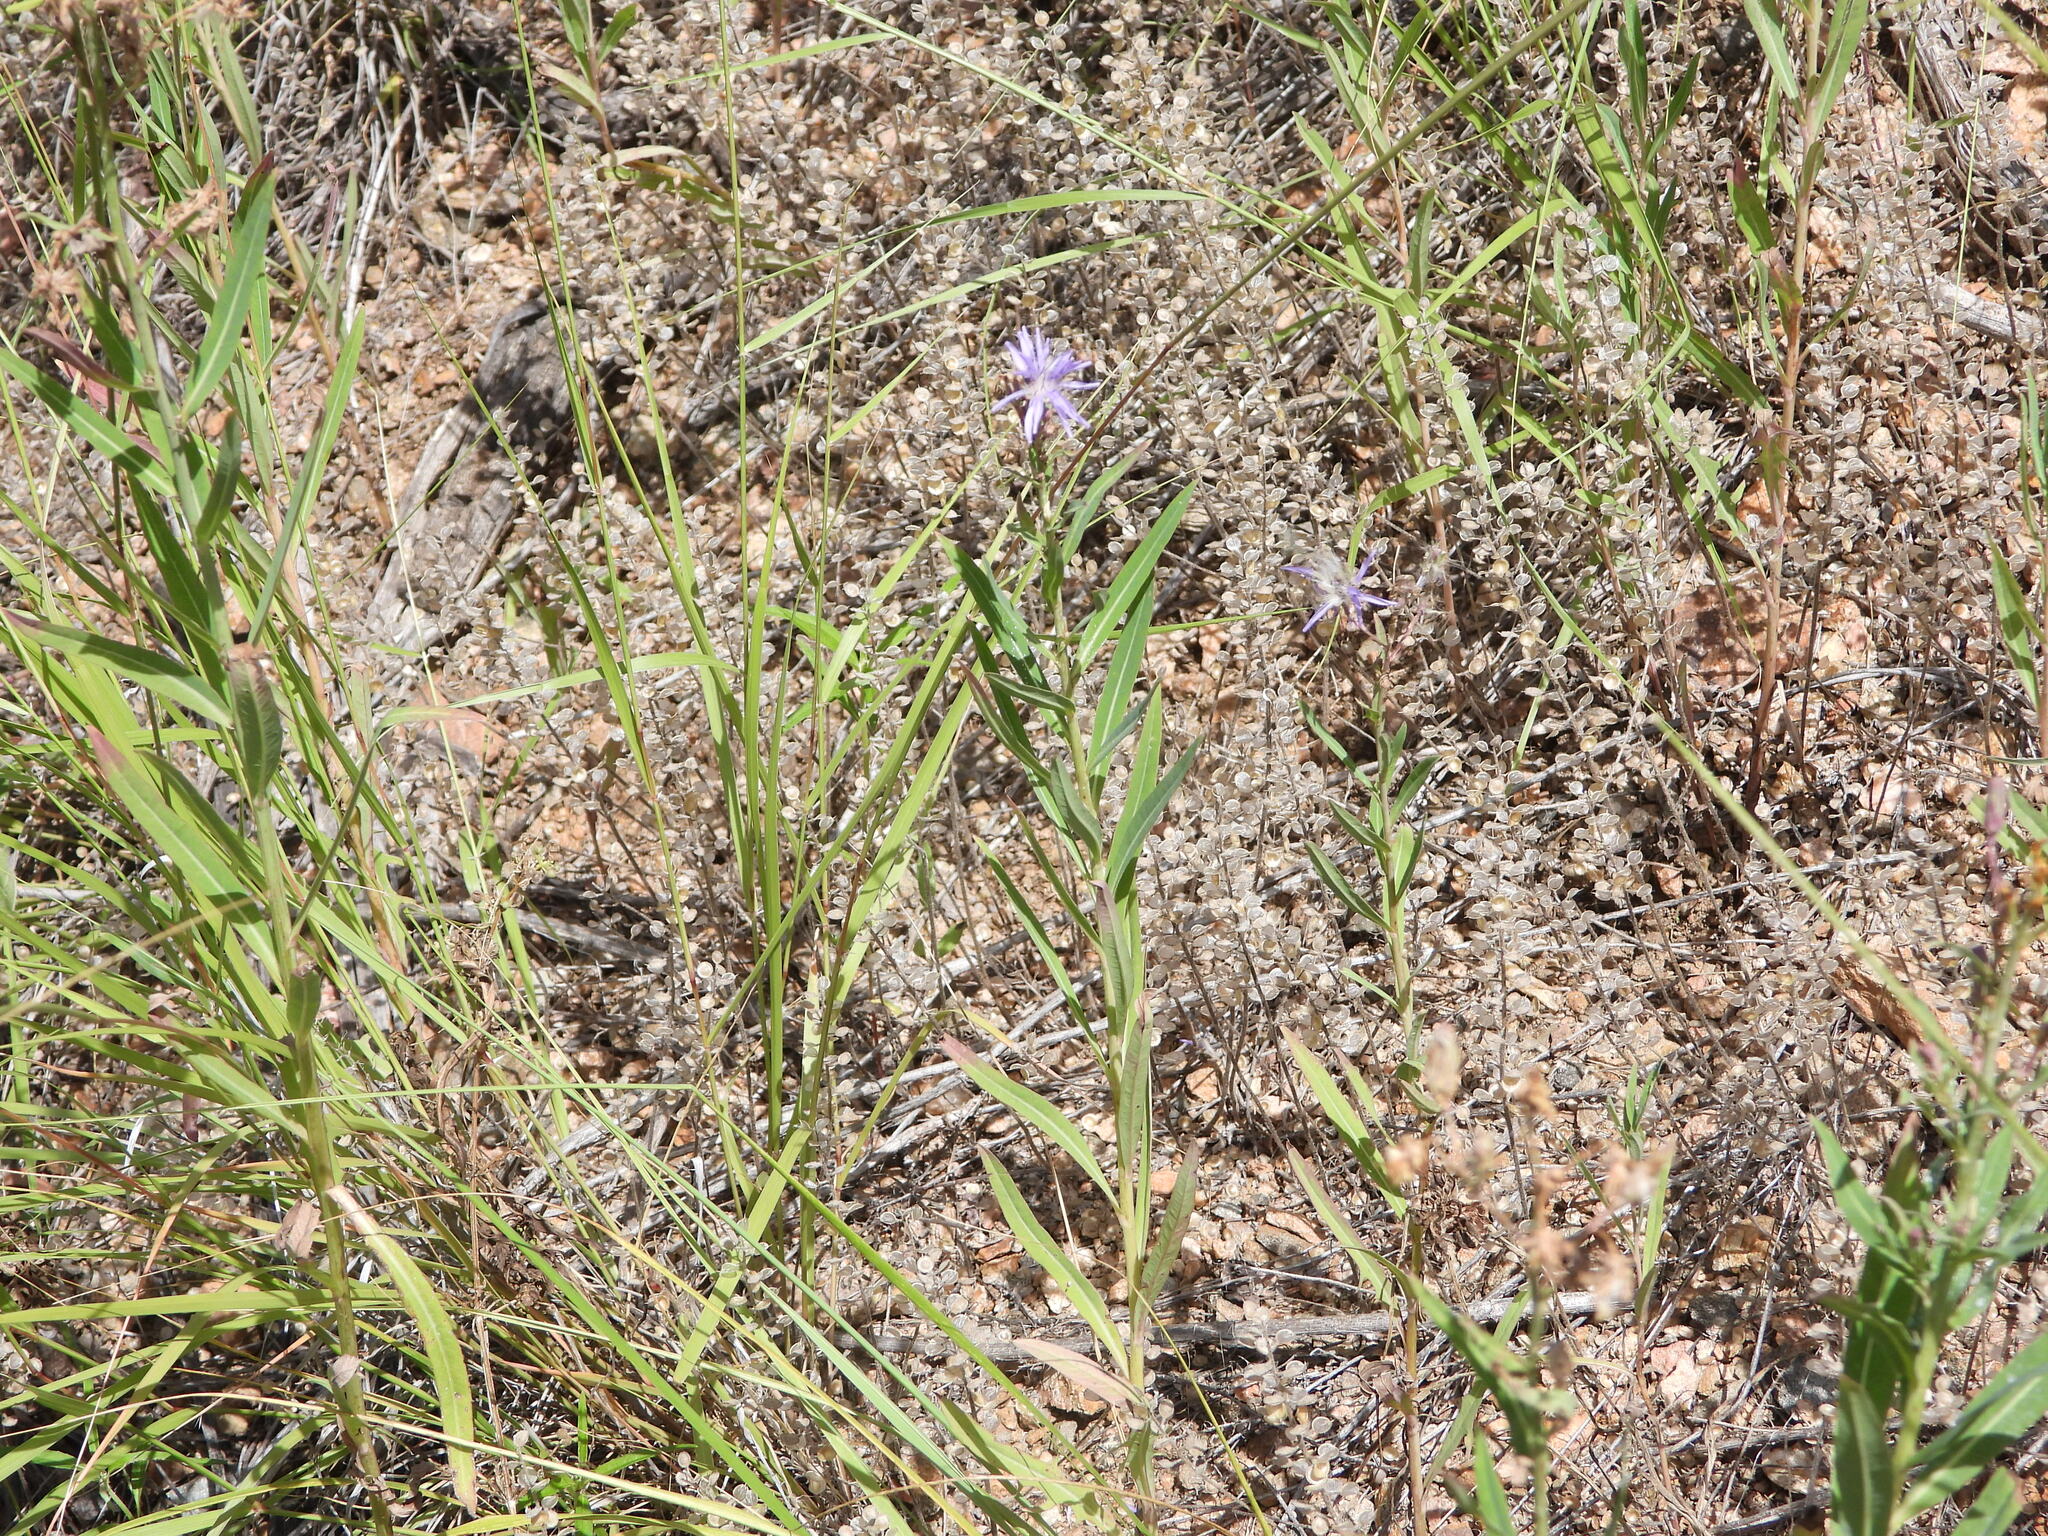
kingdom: Plantae
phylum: Tracheophyta
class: Magnoliopsida
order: Asterales
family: Asteraceae
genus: Lactuca
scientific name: Lactuca pulchella
